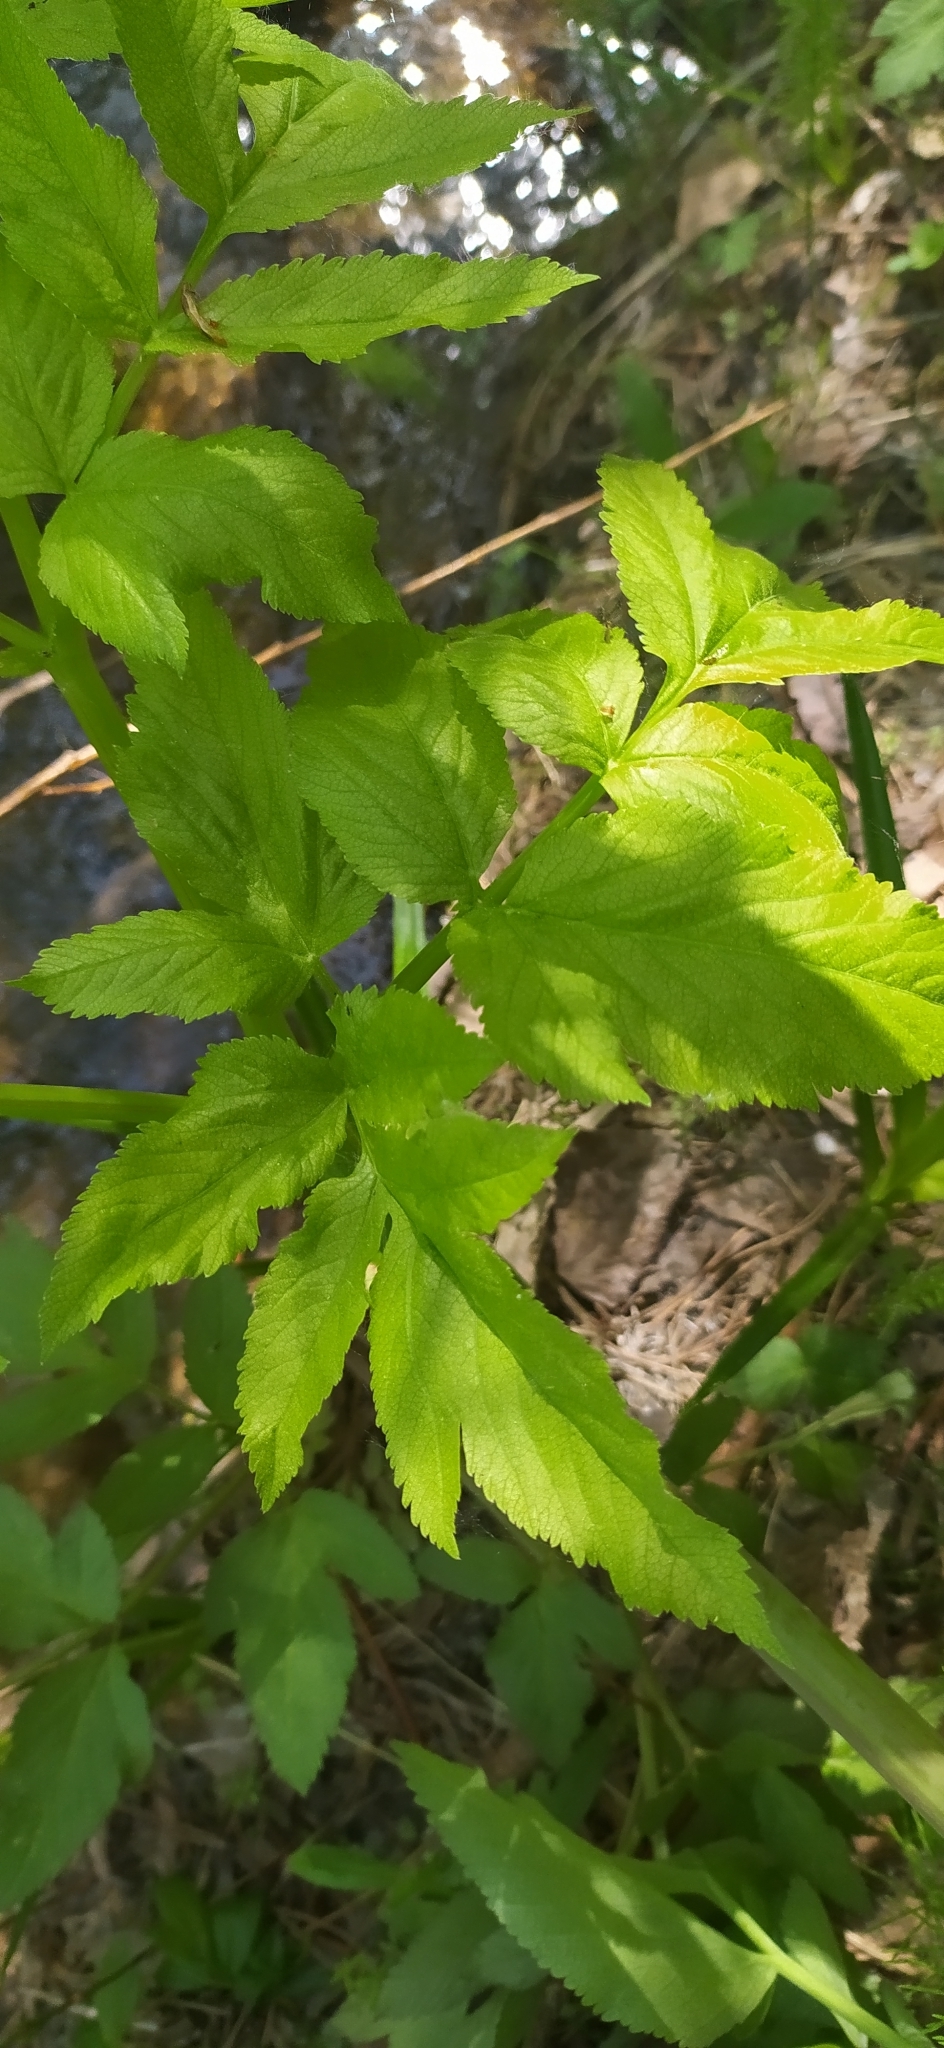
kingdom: Plantae
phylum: Tracheophyta
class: Magnoliopsida
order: Apiales
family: Apiaceae
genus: Angelica
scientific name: Angelica sylvestris
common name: Wild angelica
